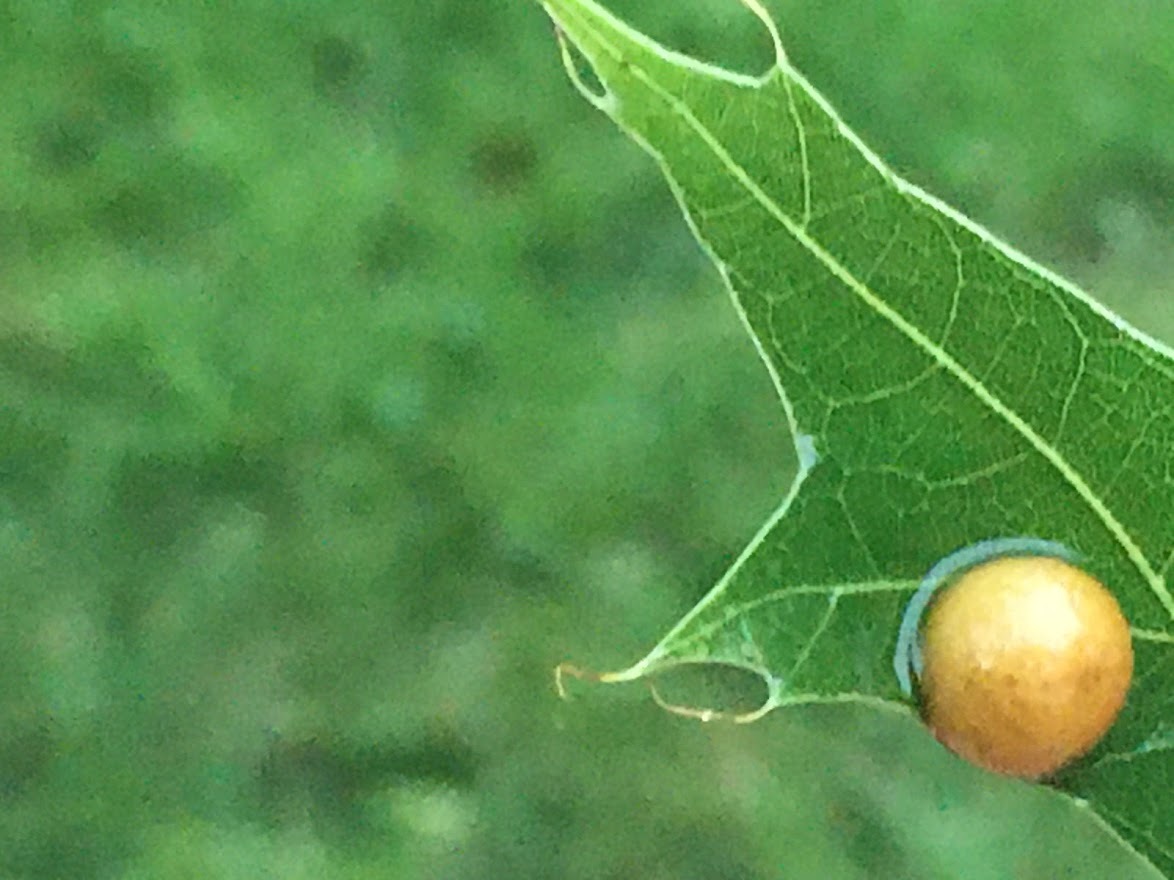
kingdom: Animalia
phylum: Arthropoda
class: Insecta
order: Diptera
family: Cecidomyiidae
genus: Polystepha
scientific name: Polystepha pilulae
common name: Oak leaf gall midge
